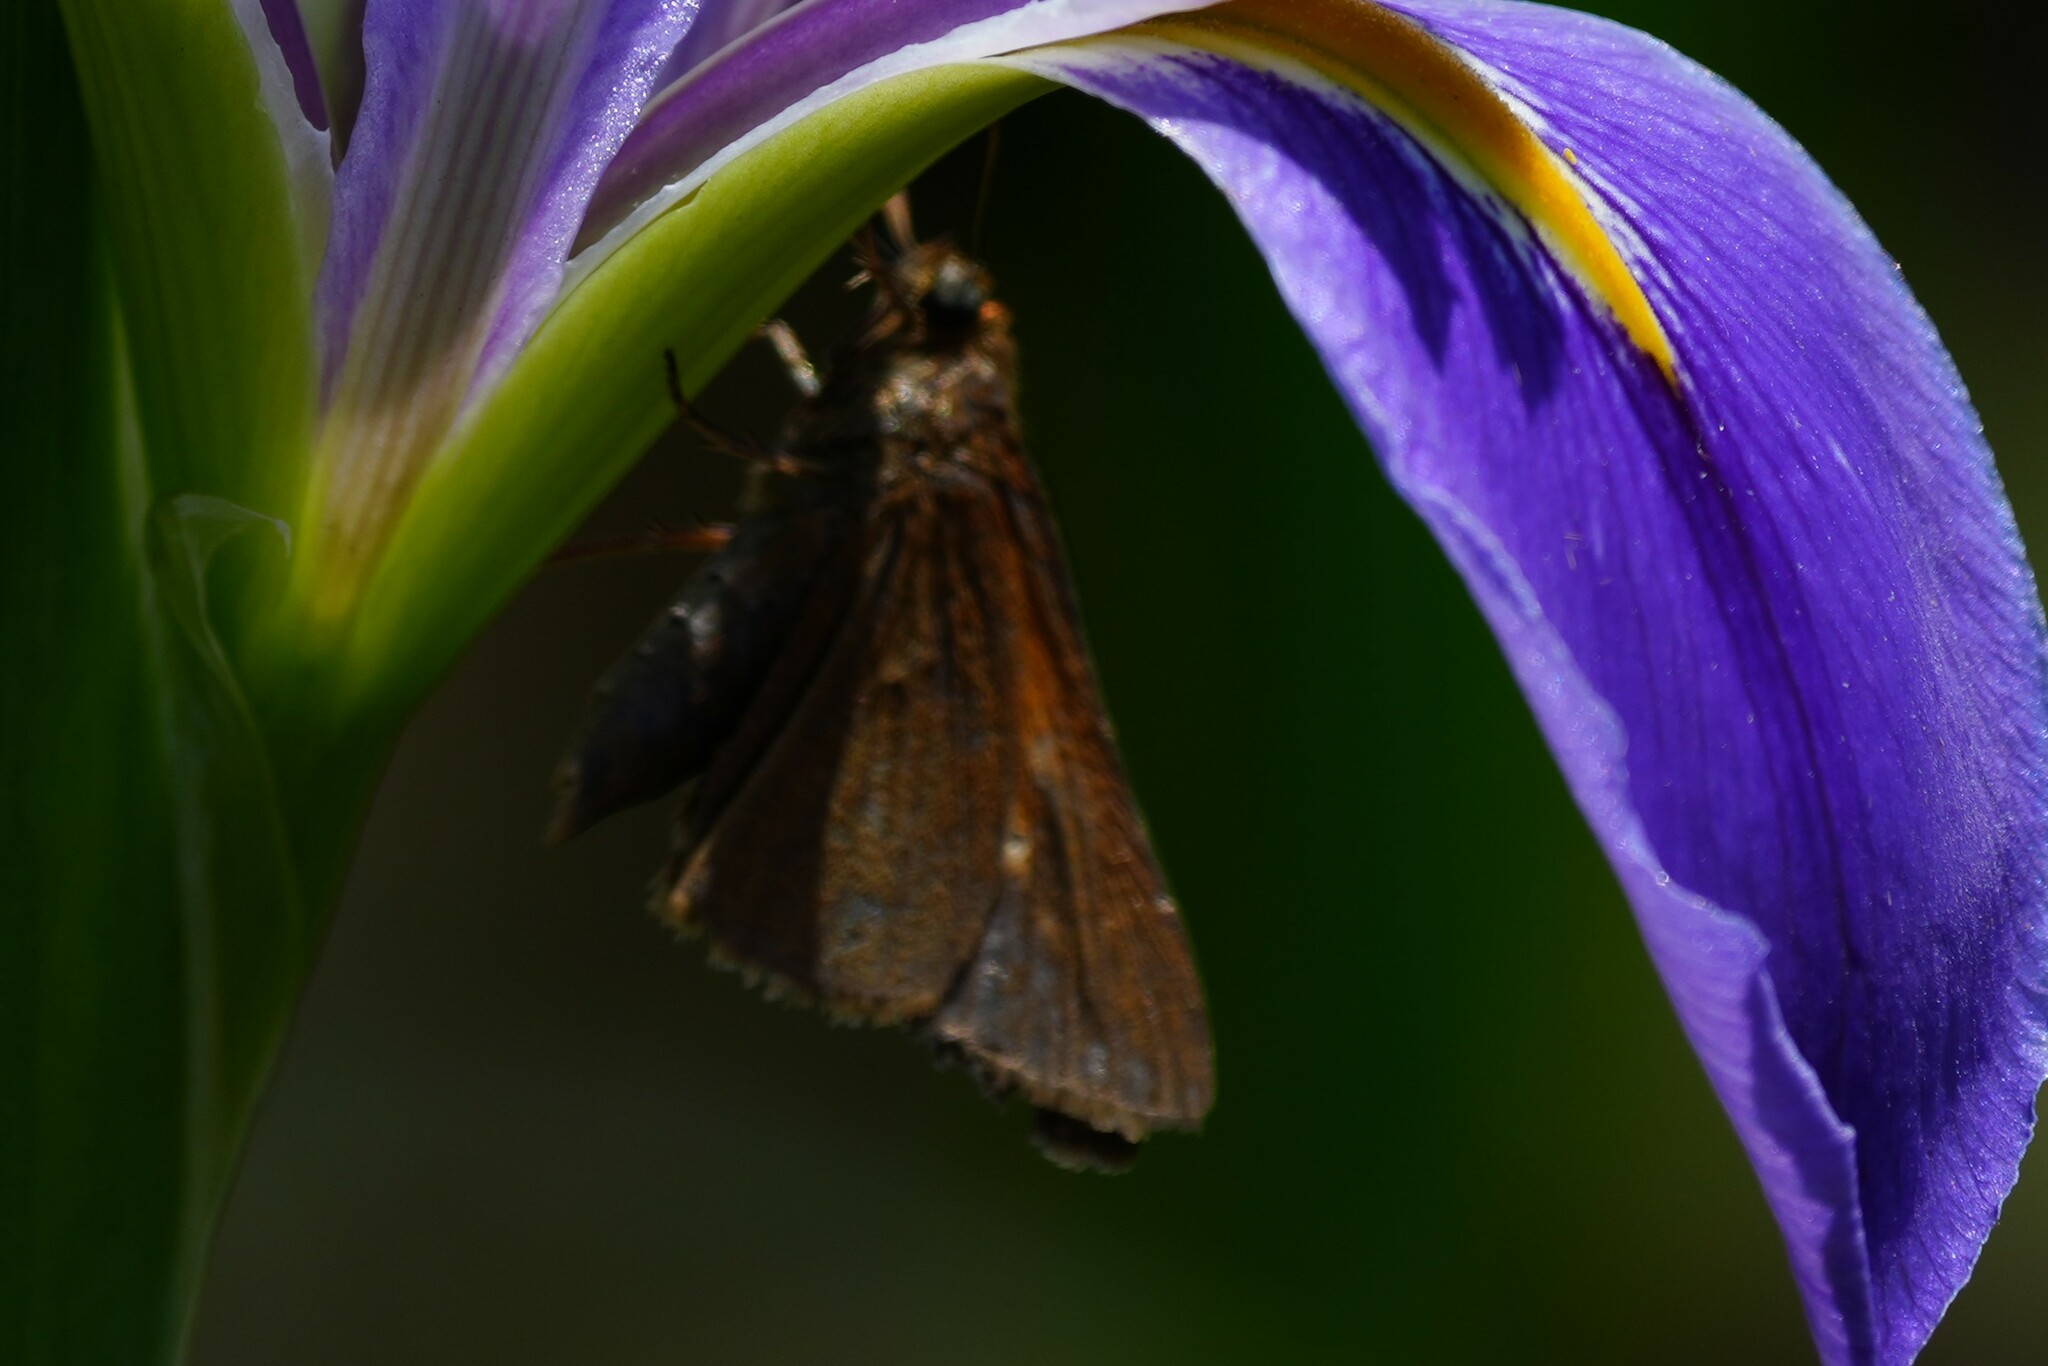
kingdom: Animalia
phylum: Arthropoda
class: Insecta
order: Lepidoptera
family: Hesperiidae
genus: Euphyes
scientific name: Euphyes vestris
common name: Dun skipper
